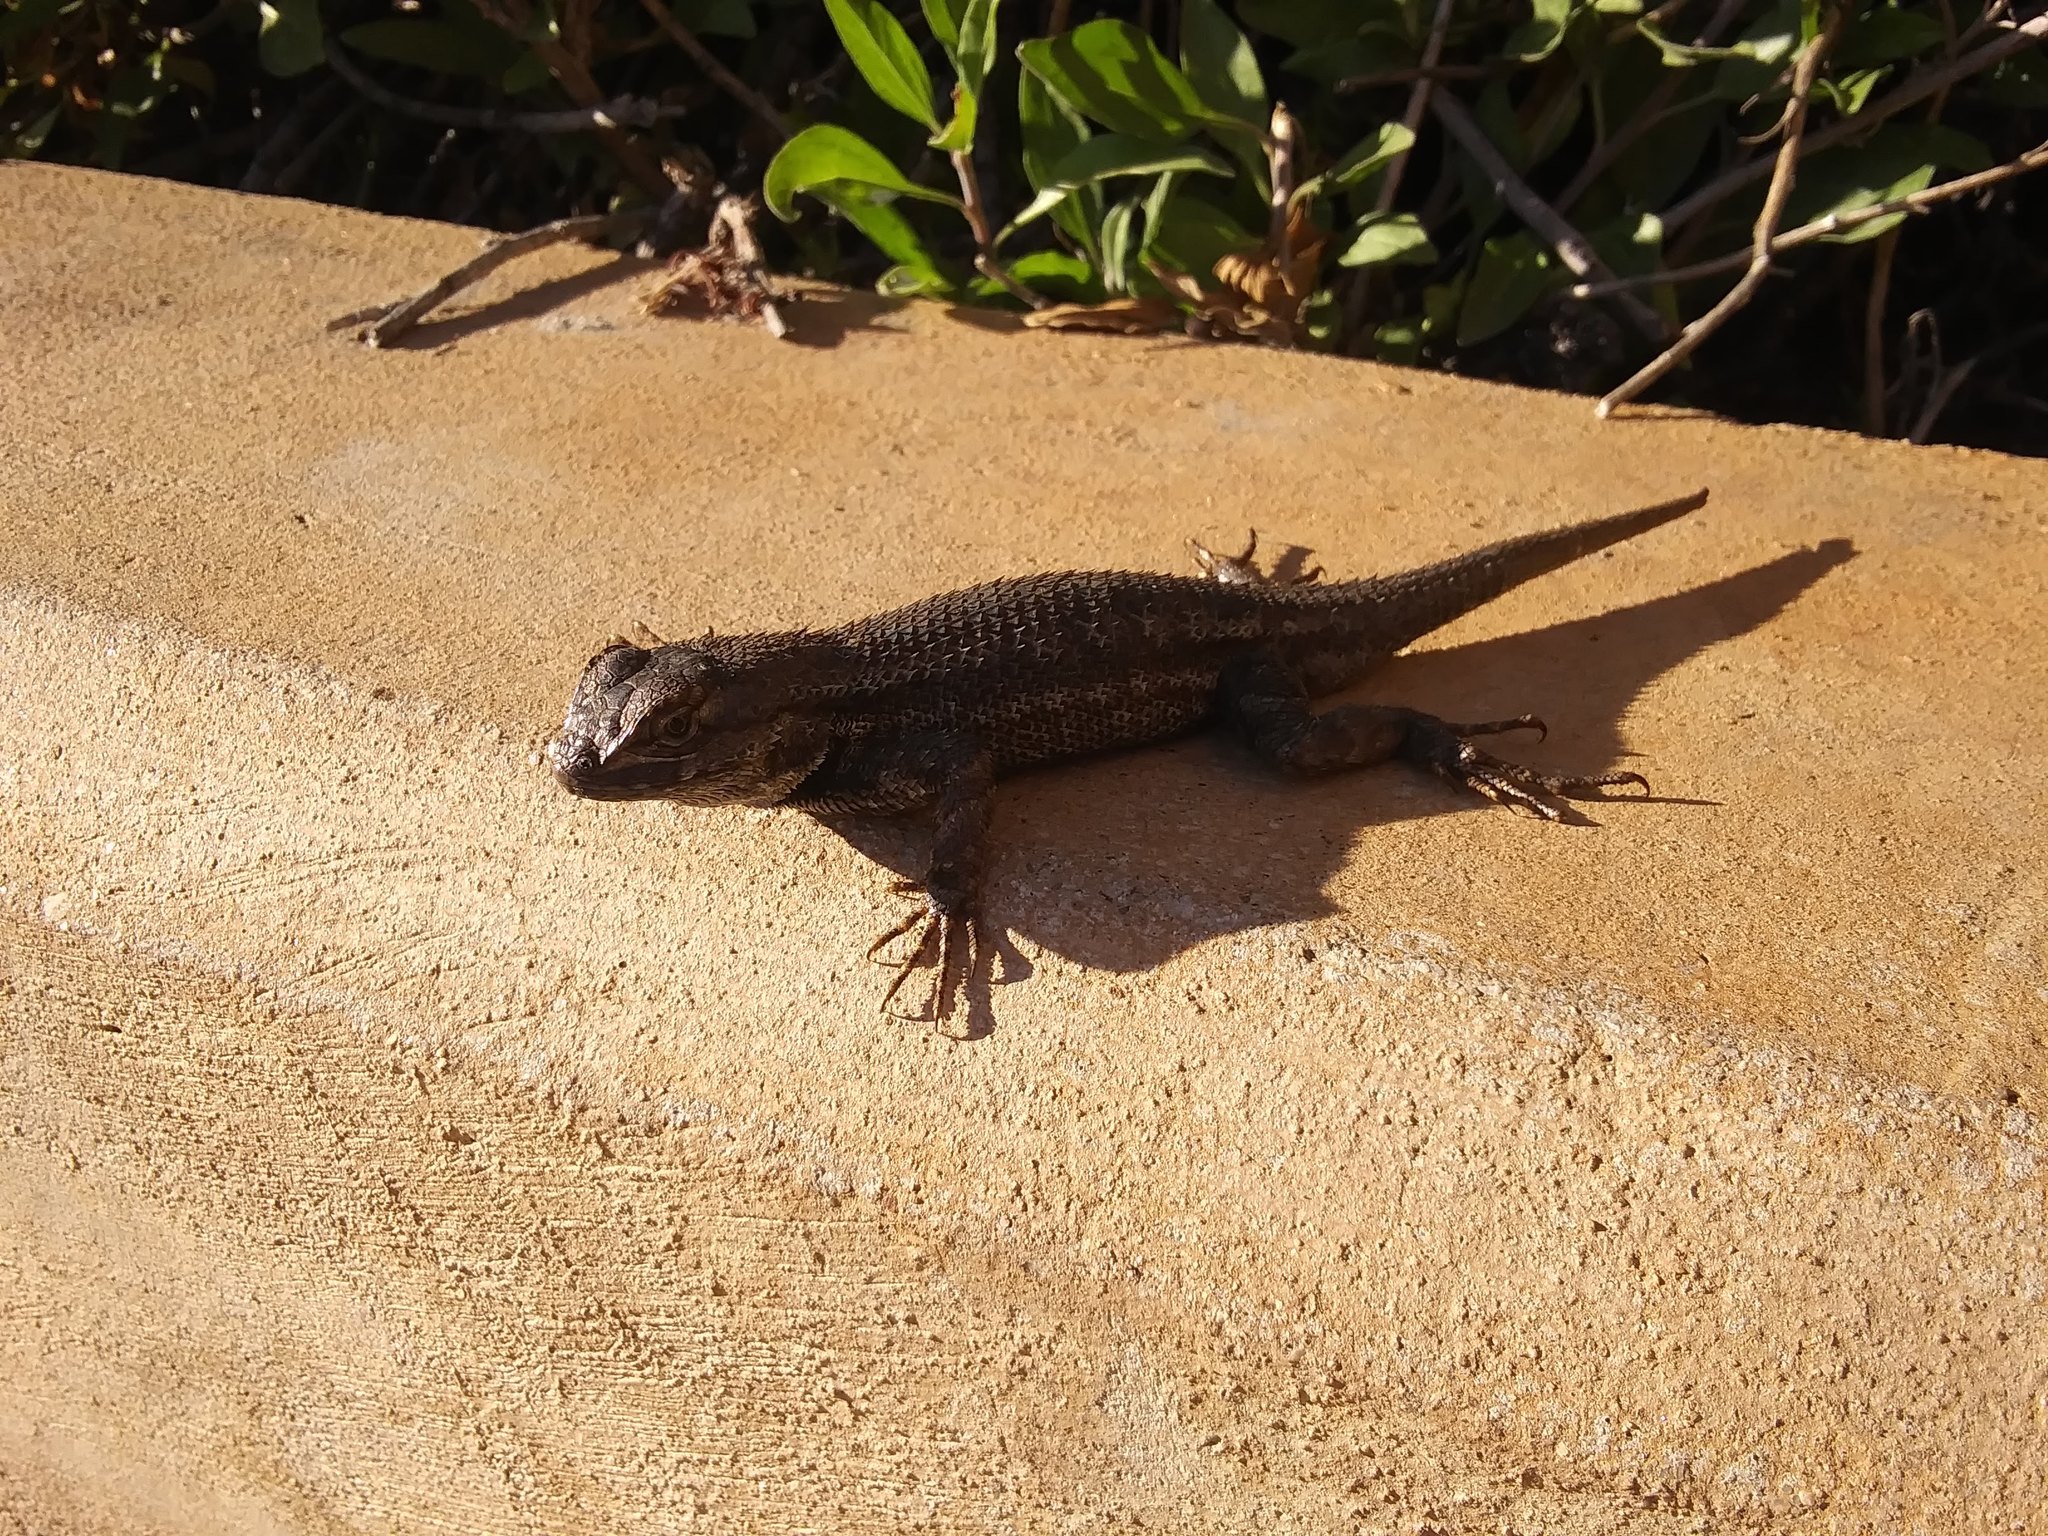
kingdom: Animalia
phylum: Chordata
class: Squamata
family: Phrynosomatidae
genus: Sceloporus
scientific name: Sceloporus occidentalis
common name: Western fence lizard
